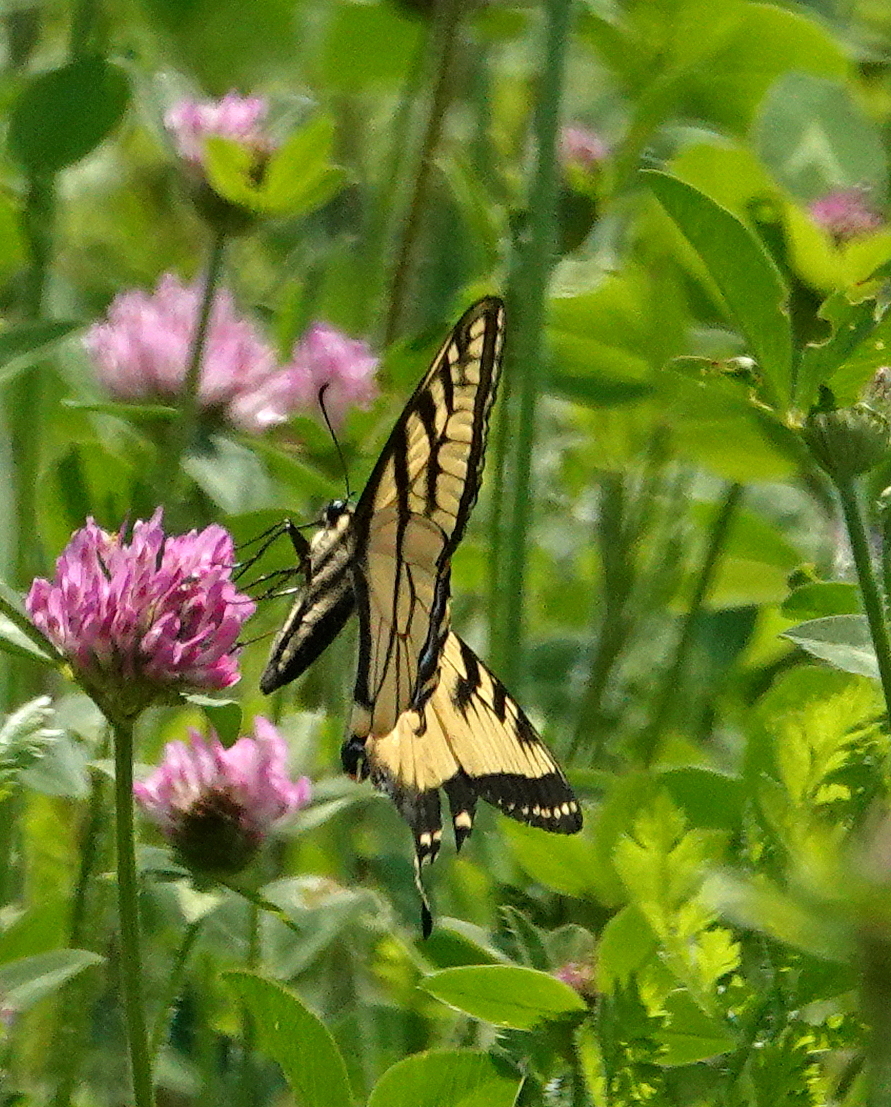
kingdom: Animalia
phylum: Arthropoda
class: Insecta
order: Lepidoptera
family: Papilionidae
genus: Papilio
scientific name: Papilio canadensis
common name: Canadian tiger swallowtail
